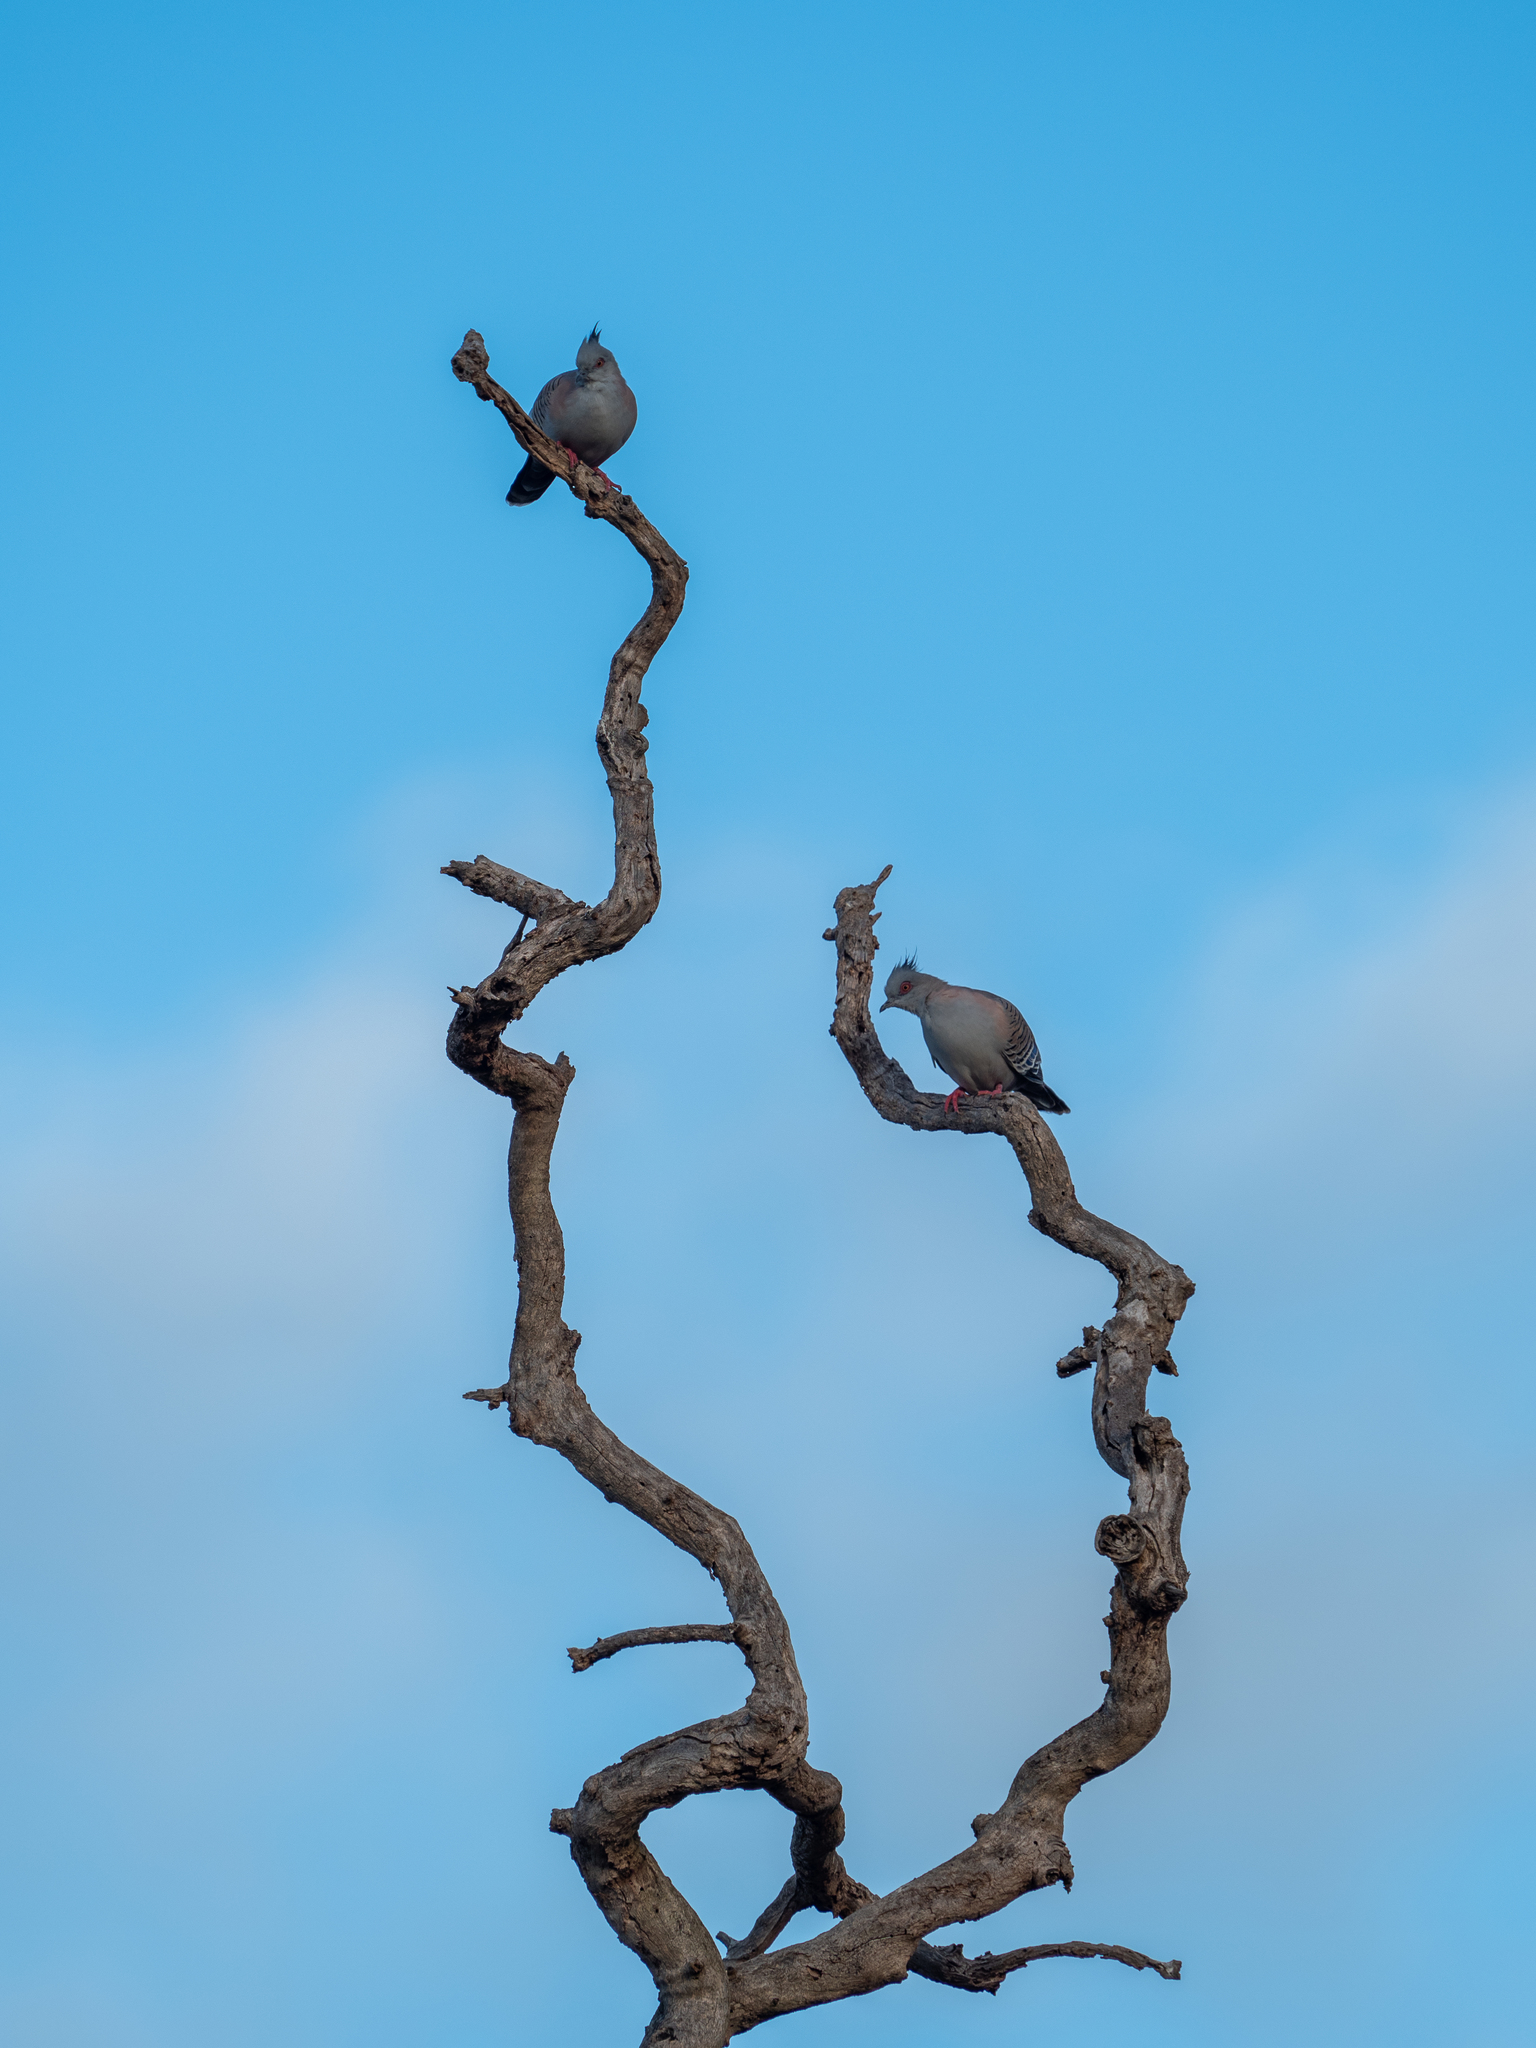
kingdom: Animalia
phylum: Chordata
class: Aves
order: Columbiformes
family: Columbidae
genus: Ocyphaps
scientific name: Ocyphaps lophotes
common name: Crested pigeon
